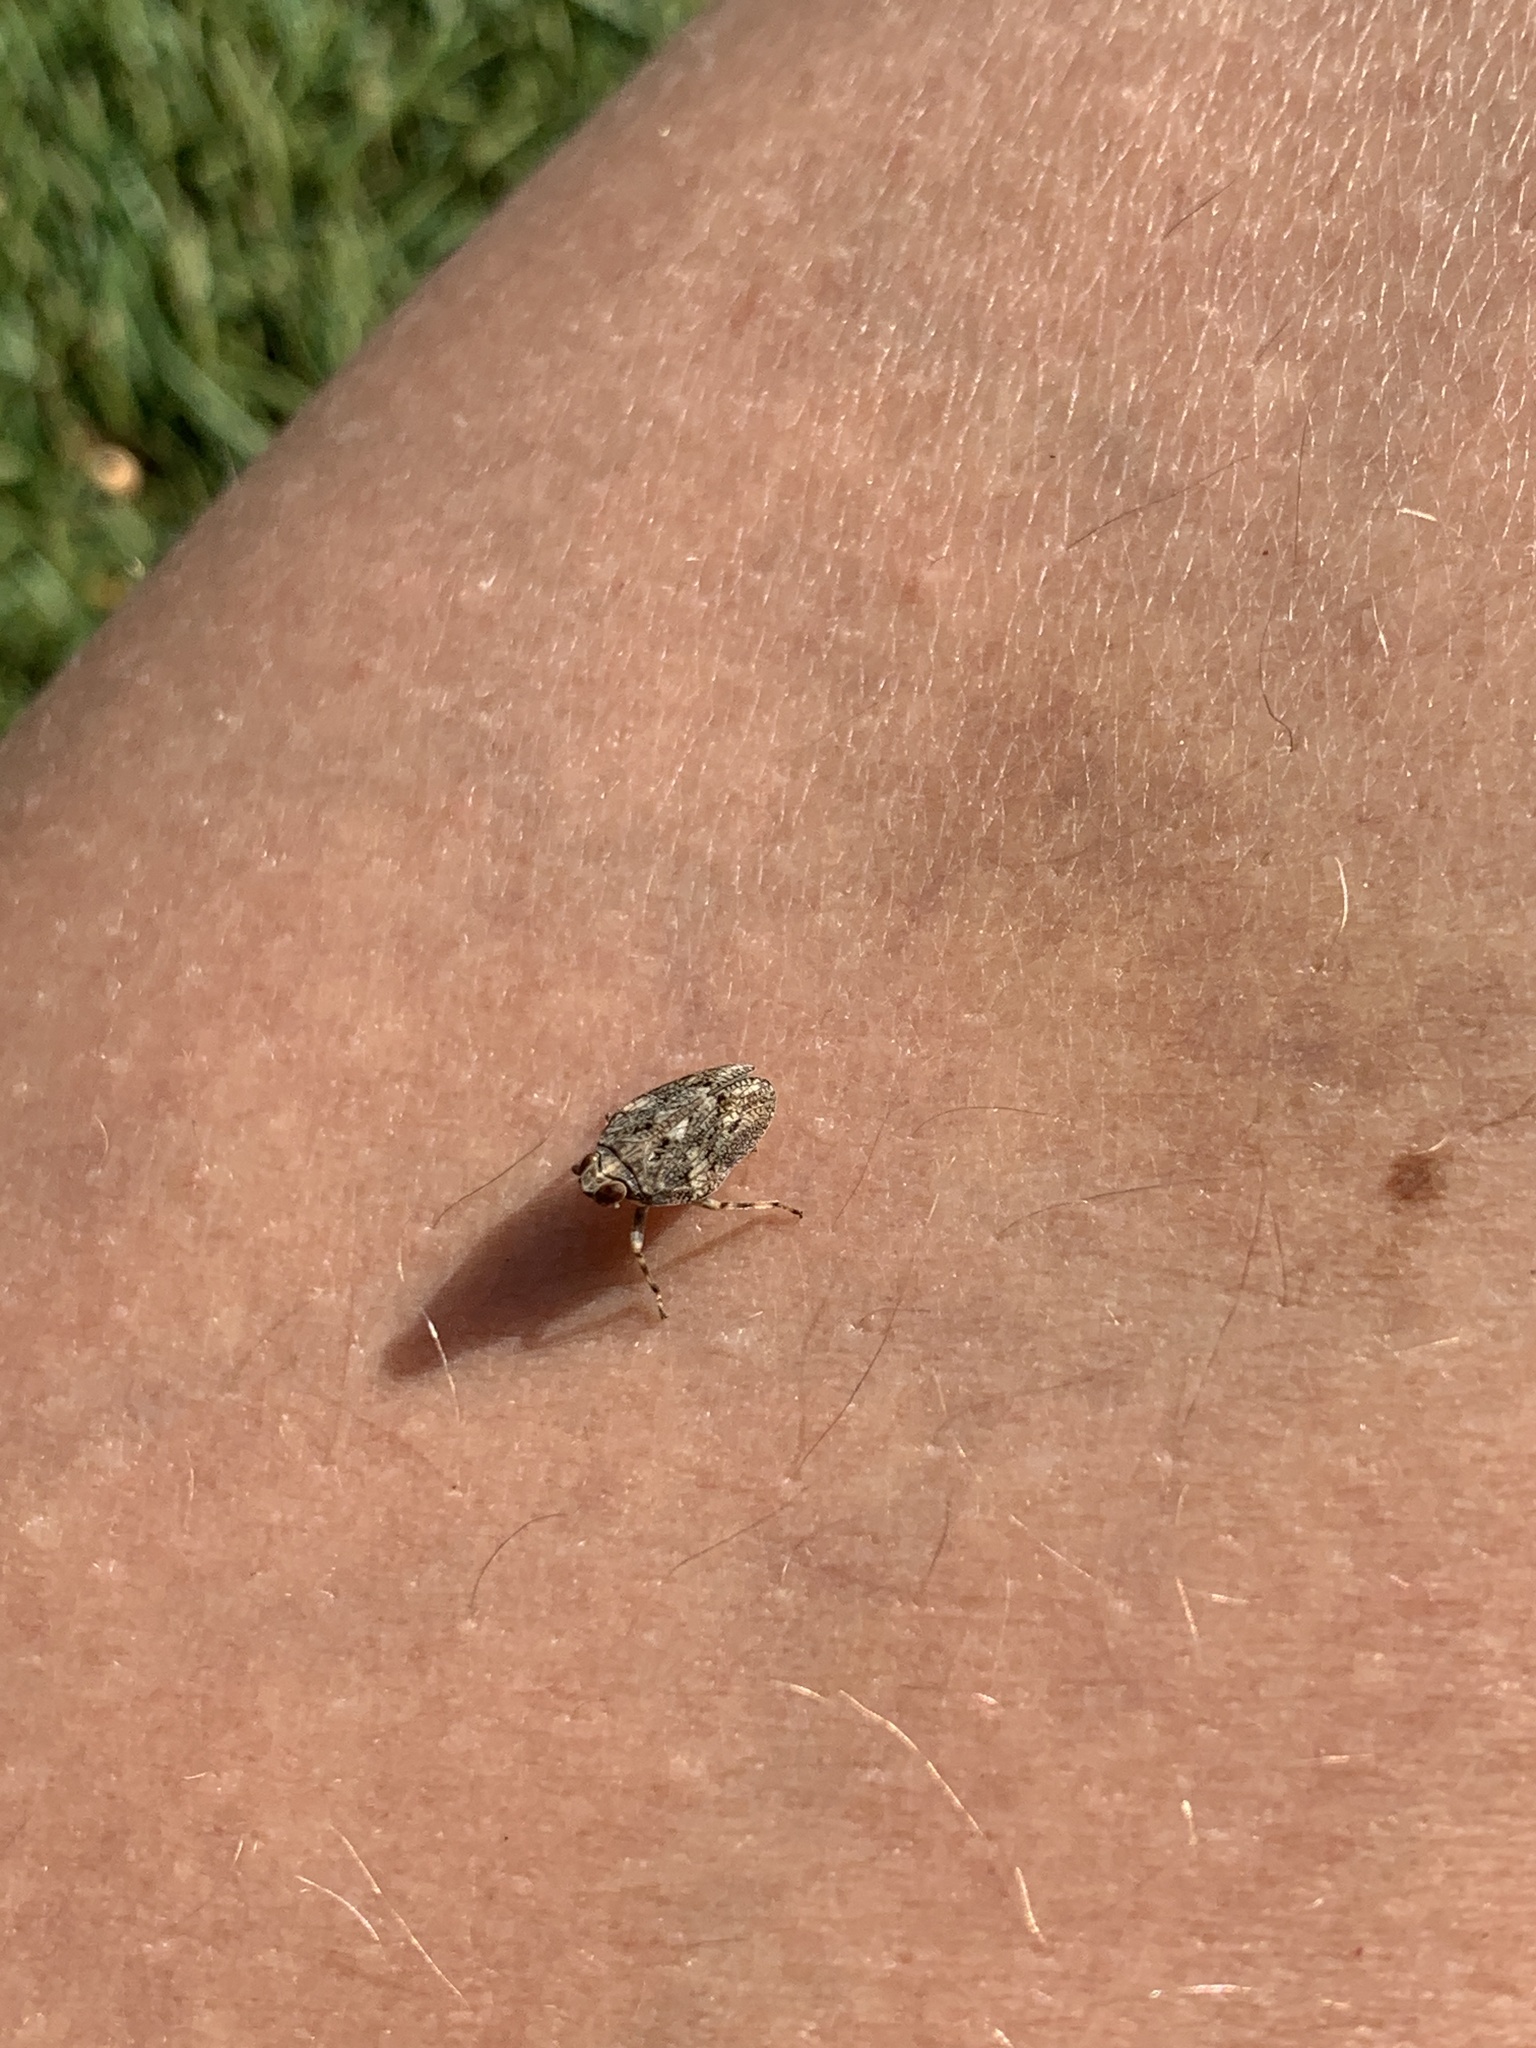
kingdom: Animalia
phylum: Arthropoda
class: Insecta
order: Hemiptera
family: Issidae
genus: Issus
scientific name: Issus coleoptratus
